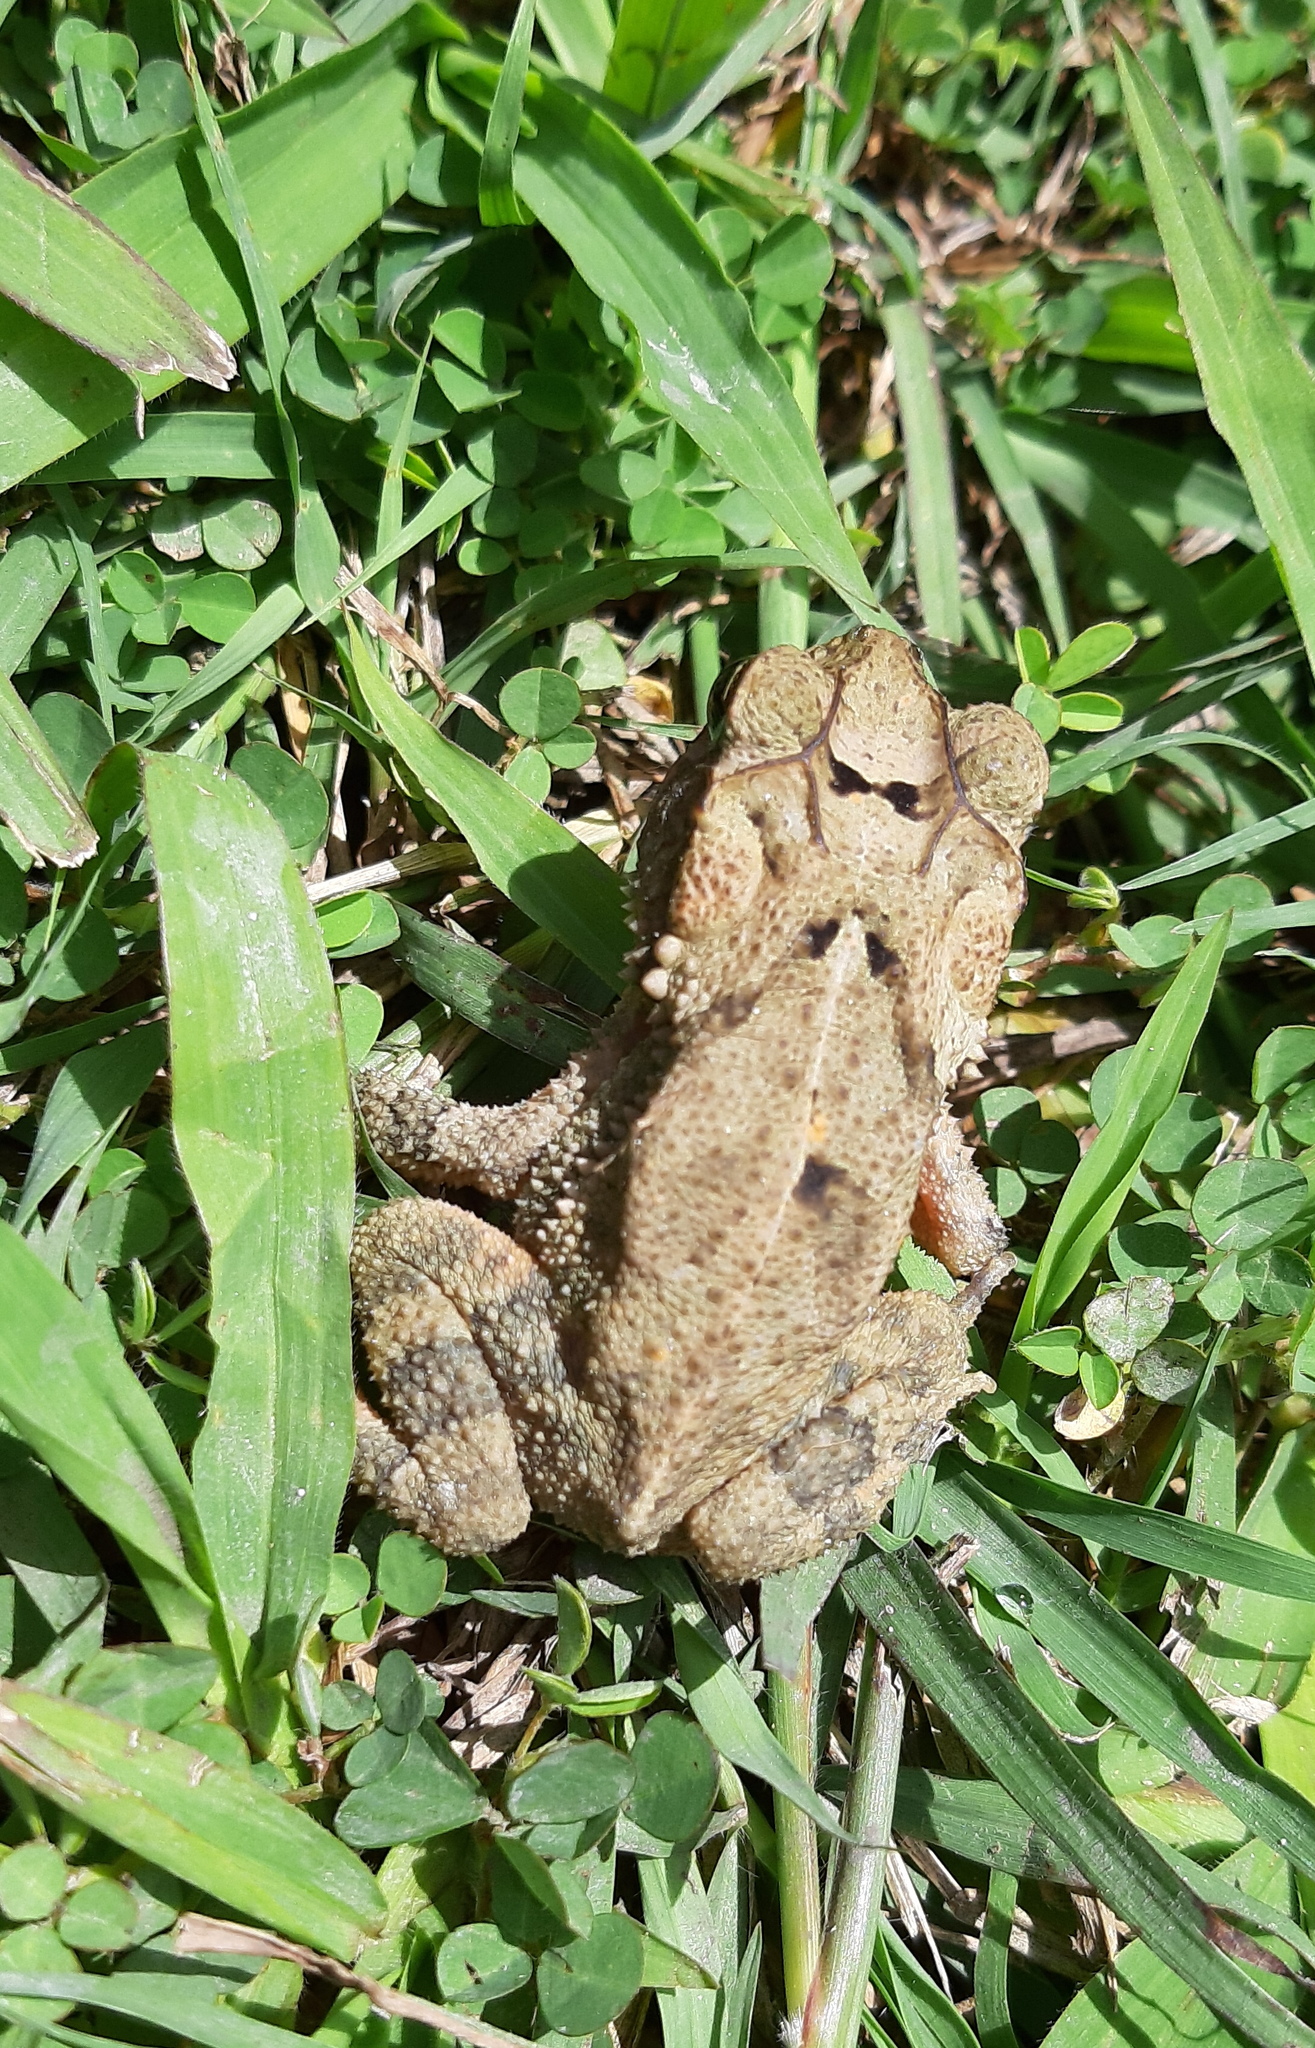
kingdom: Animalia
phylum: Chordata
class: Amphibia
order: Anura
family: Bufonidae
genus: Incilius
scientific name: Incilius valliceps
